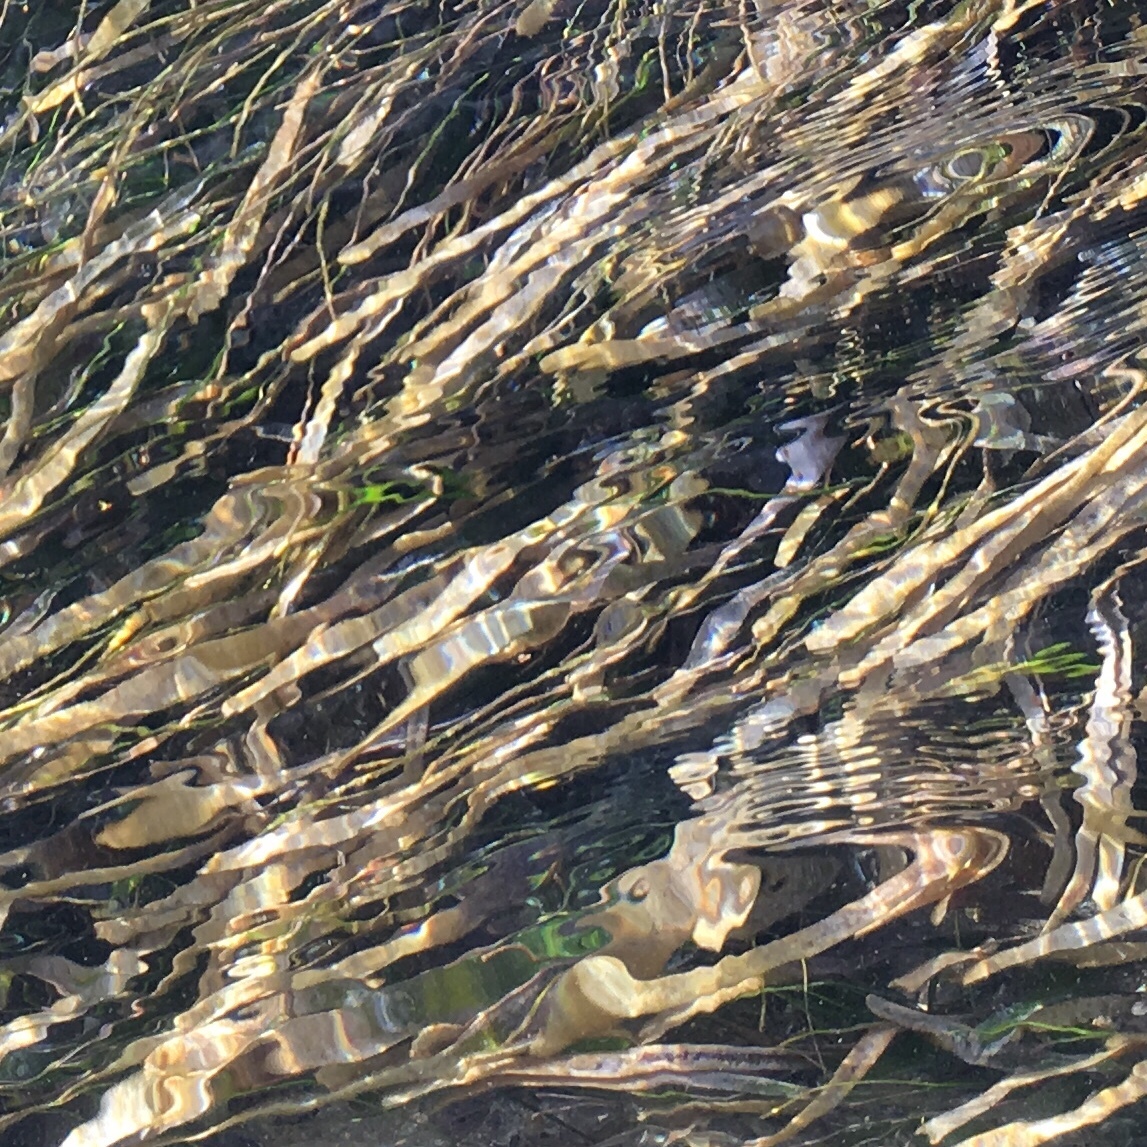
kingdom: Plantae
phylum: Tracheophyta
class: Liliopsida
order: Alismatales
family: Hydrocharitaceae
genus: Thalassia
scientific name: Thalassia testudinum
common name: Species code: tt
